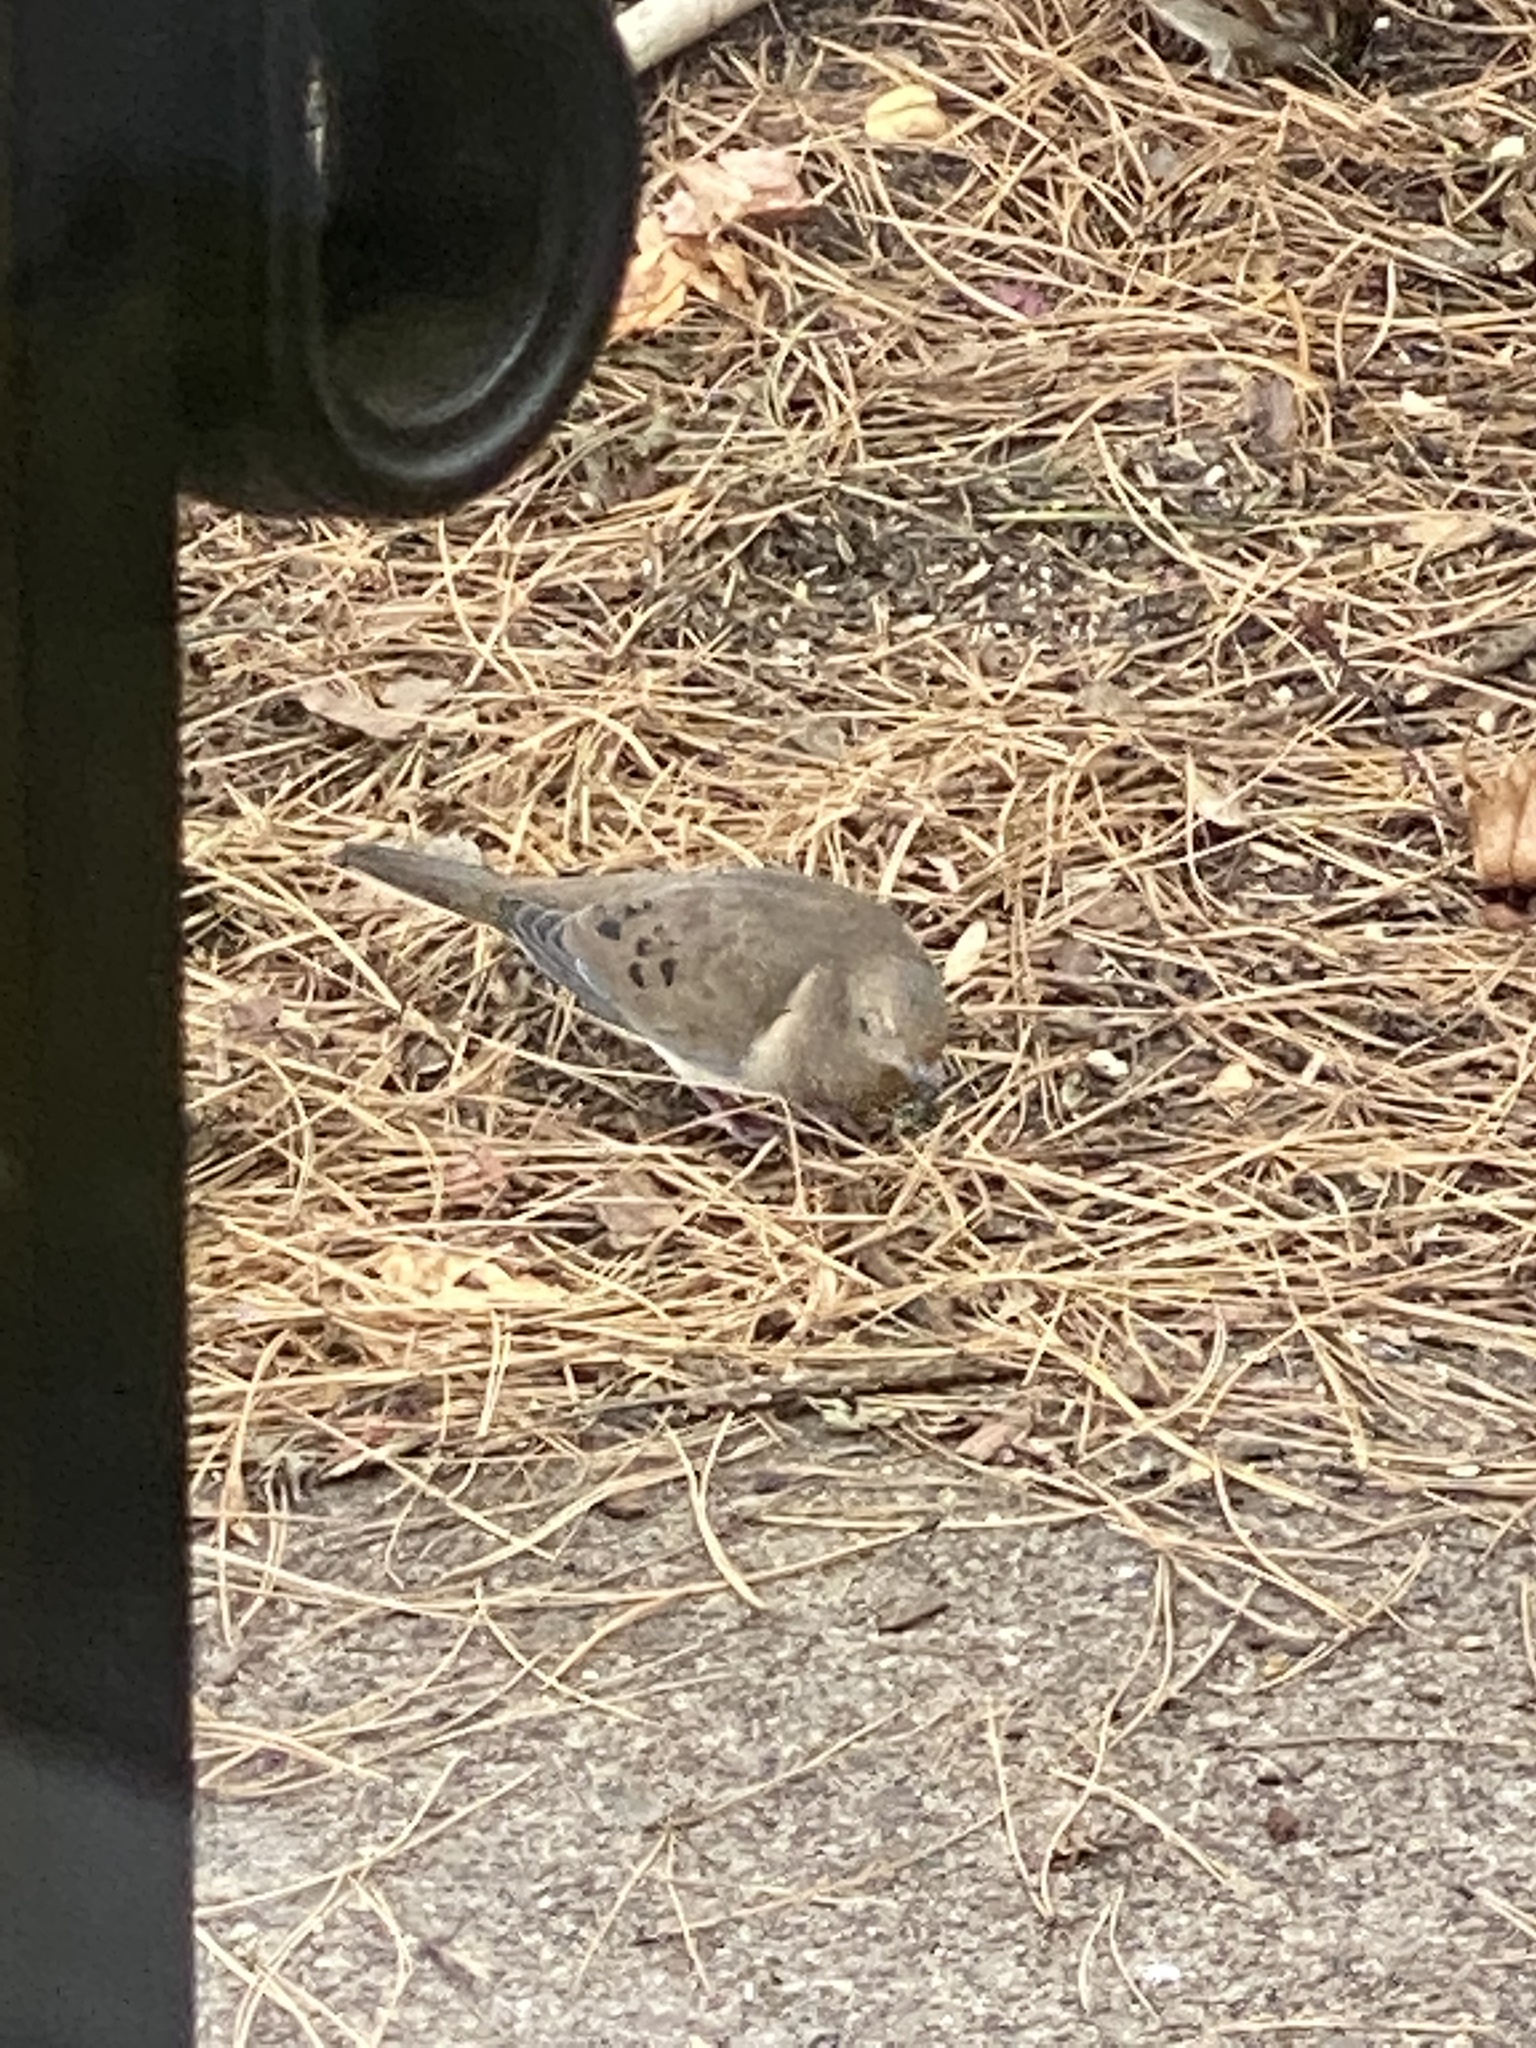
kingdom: Animalia
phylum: Chordata
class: Aves
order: Columbiformes
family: Columbidae
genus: Zenaida
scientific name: Zenaida macroura
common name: Mourning dove
